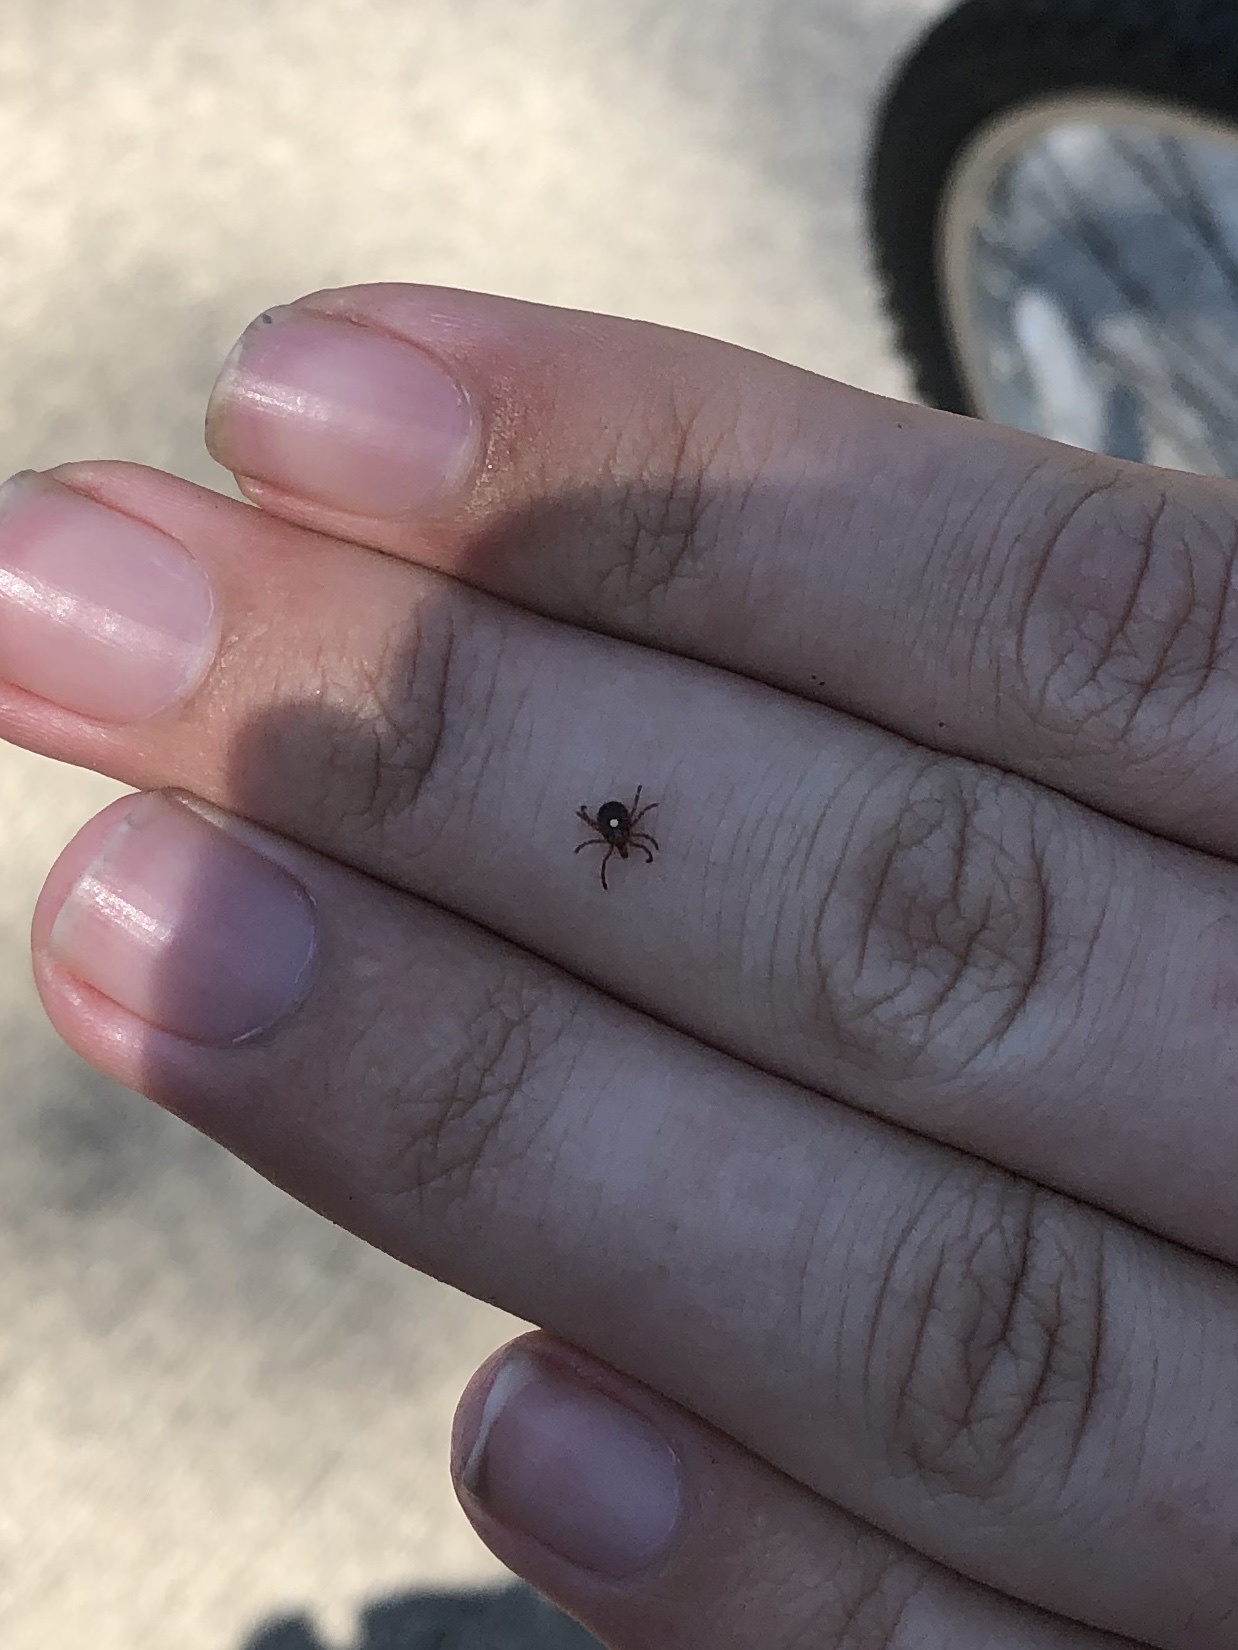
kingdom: Animalia
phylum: Arthropoda
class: Arachnida
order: Ixodida
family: Ixodidae
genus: Amblyomma
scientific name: Amblyomma americanum
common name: Lone star tick
